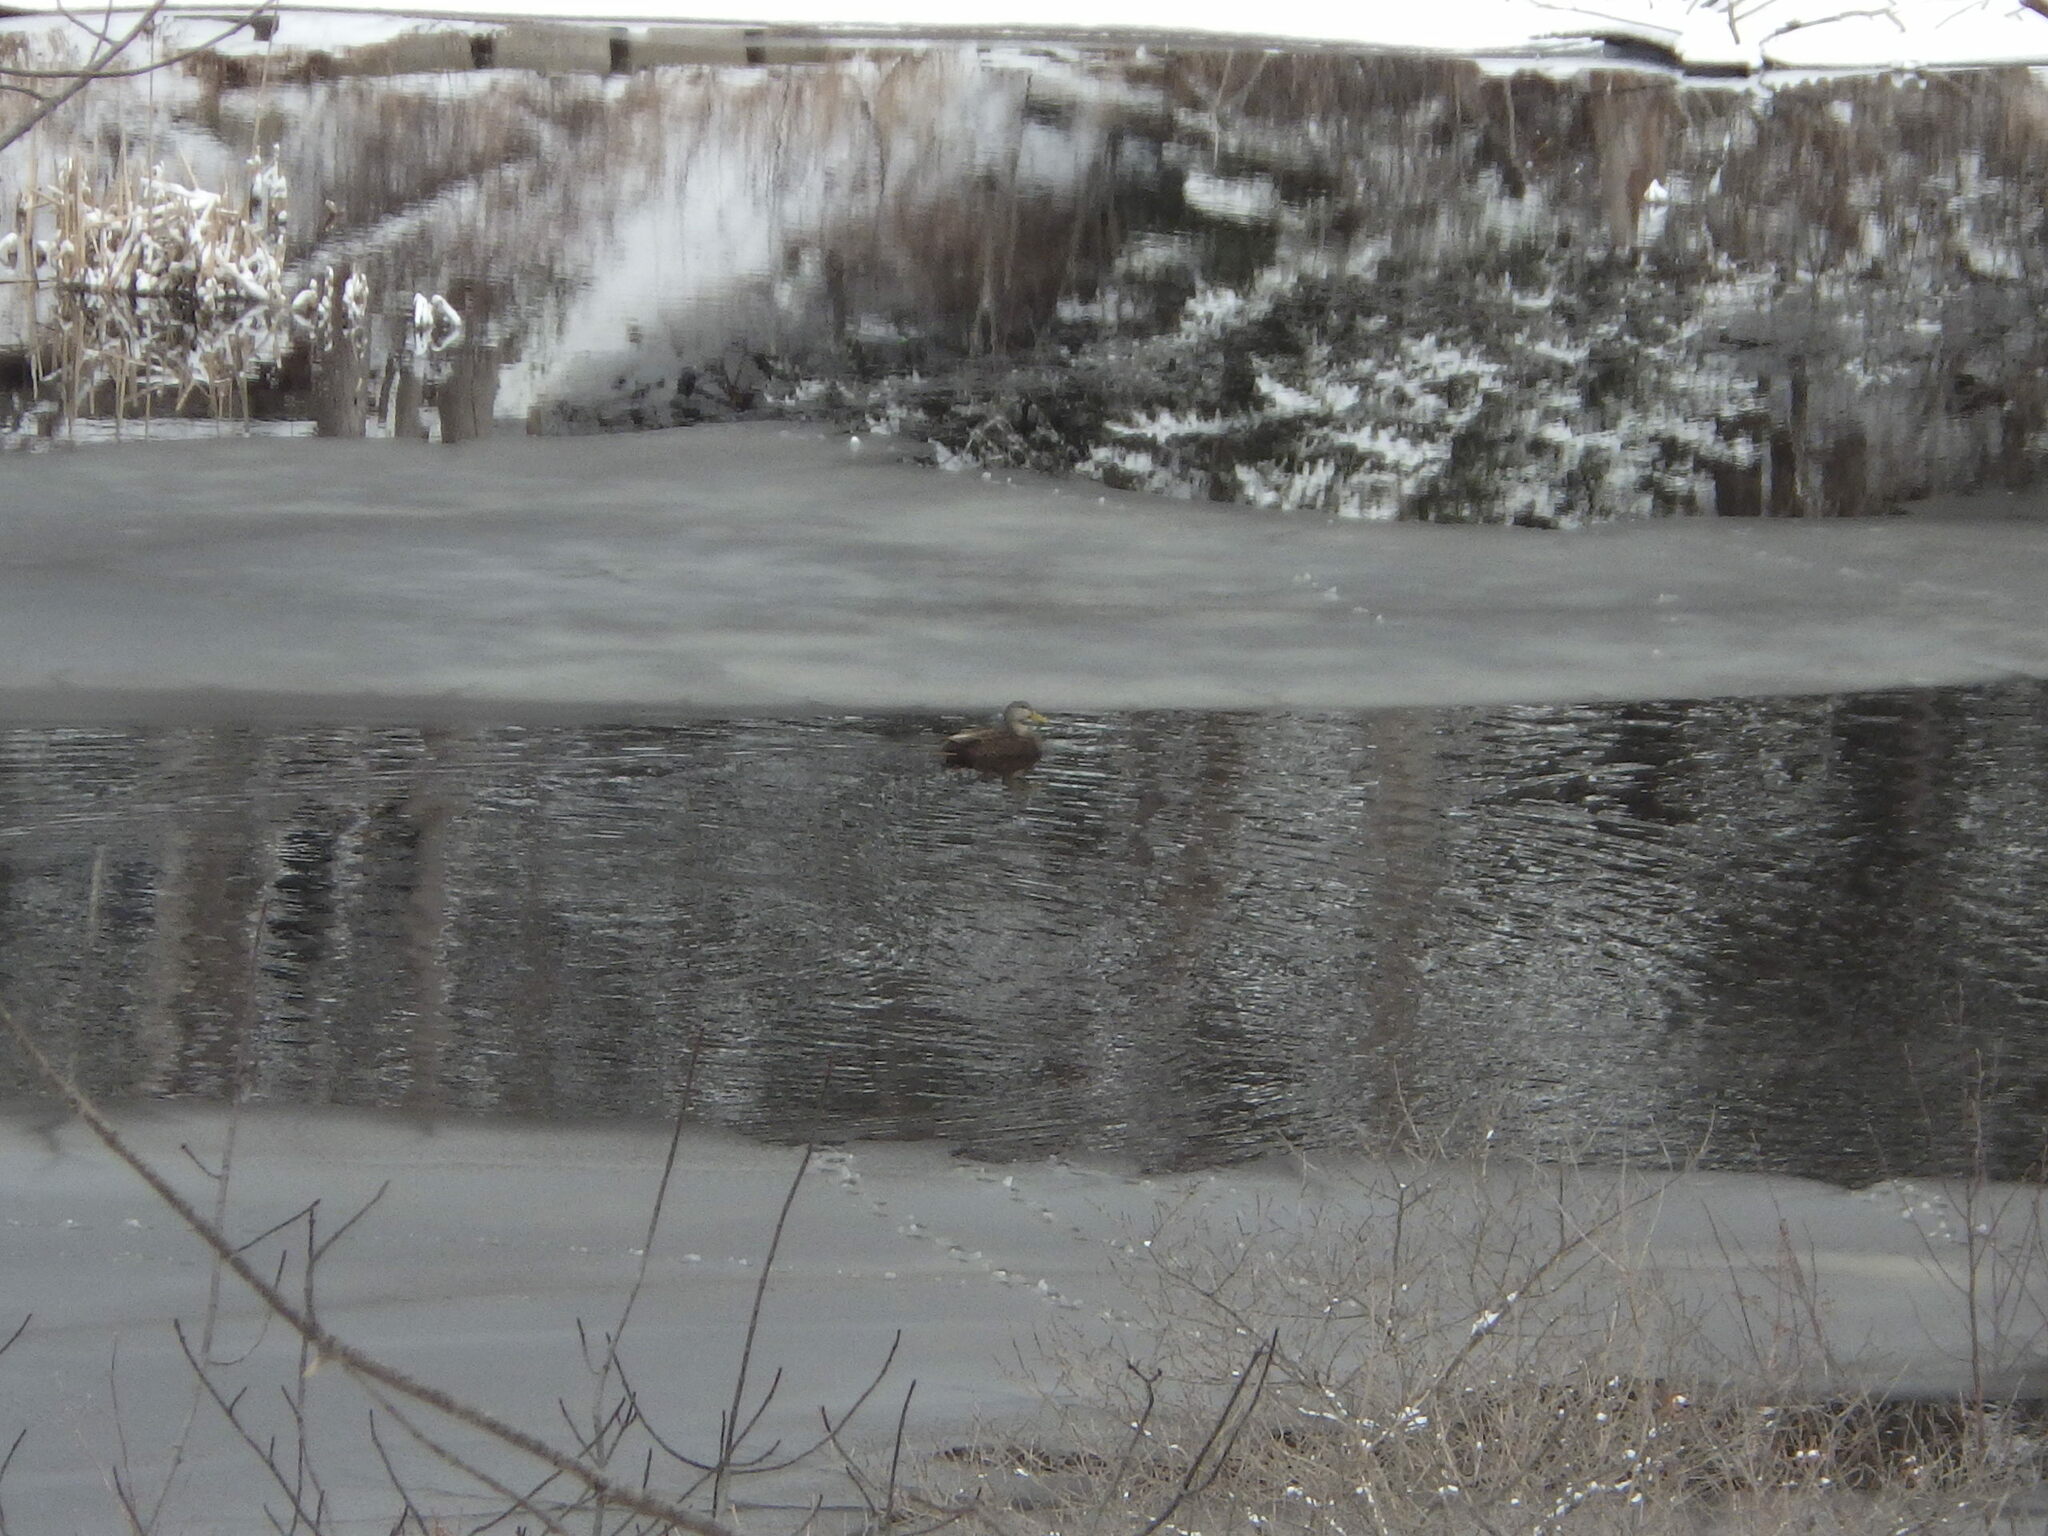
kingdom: Animalia
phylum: Chordata
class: Aves
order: Anseriformes
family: Anatidae
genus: Anas
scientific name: Anas rubripes
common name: American black duck
